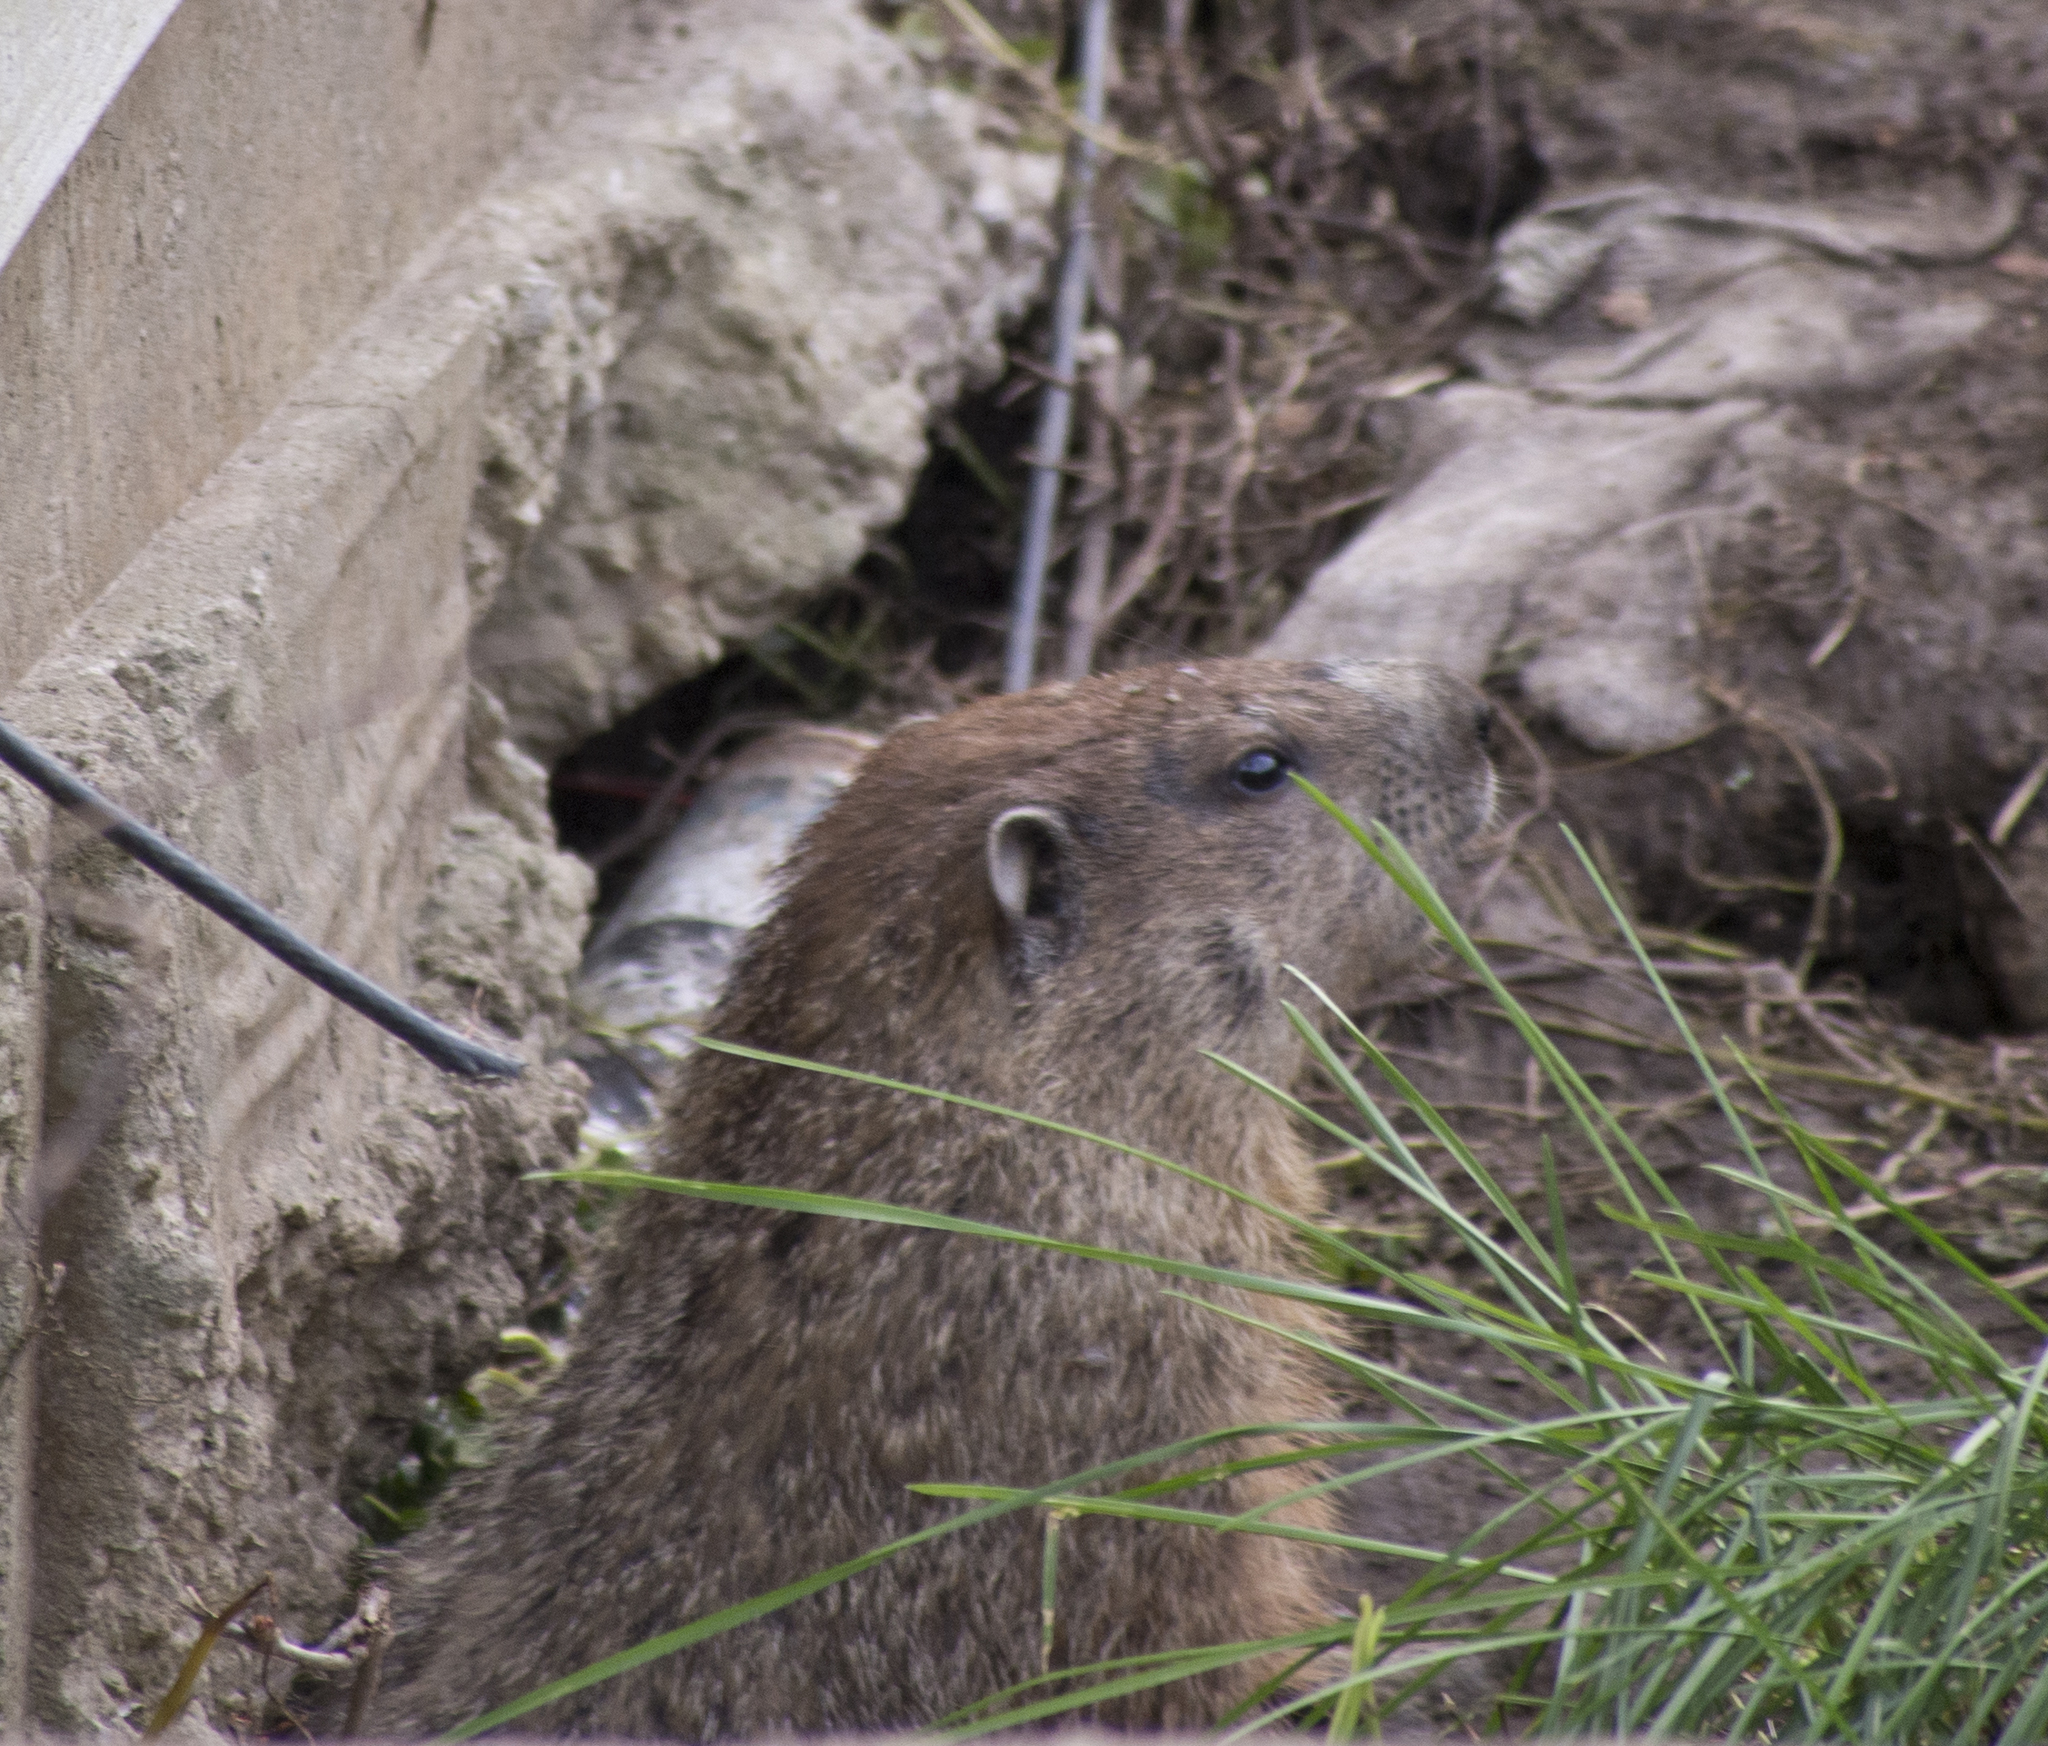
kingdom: Animalia
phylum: Chordata
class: Mammalia
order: Rodentia
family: Sciuridae
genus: Marmota
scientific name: Marmota monax
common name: Groundhog
